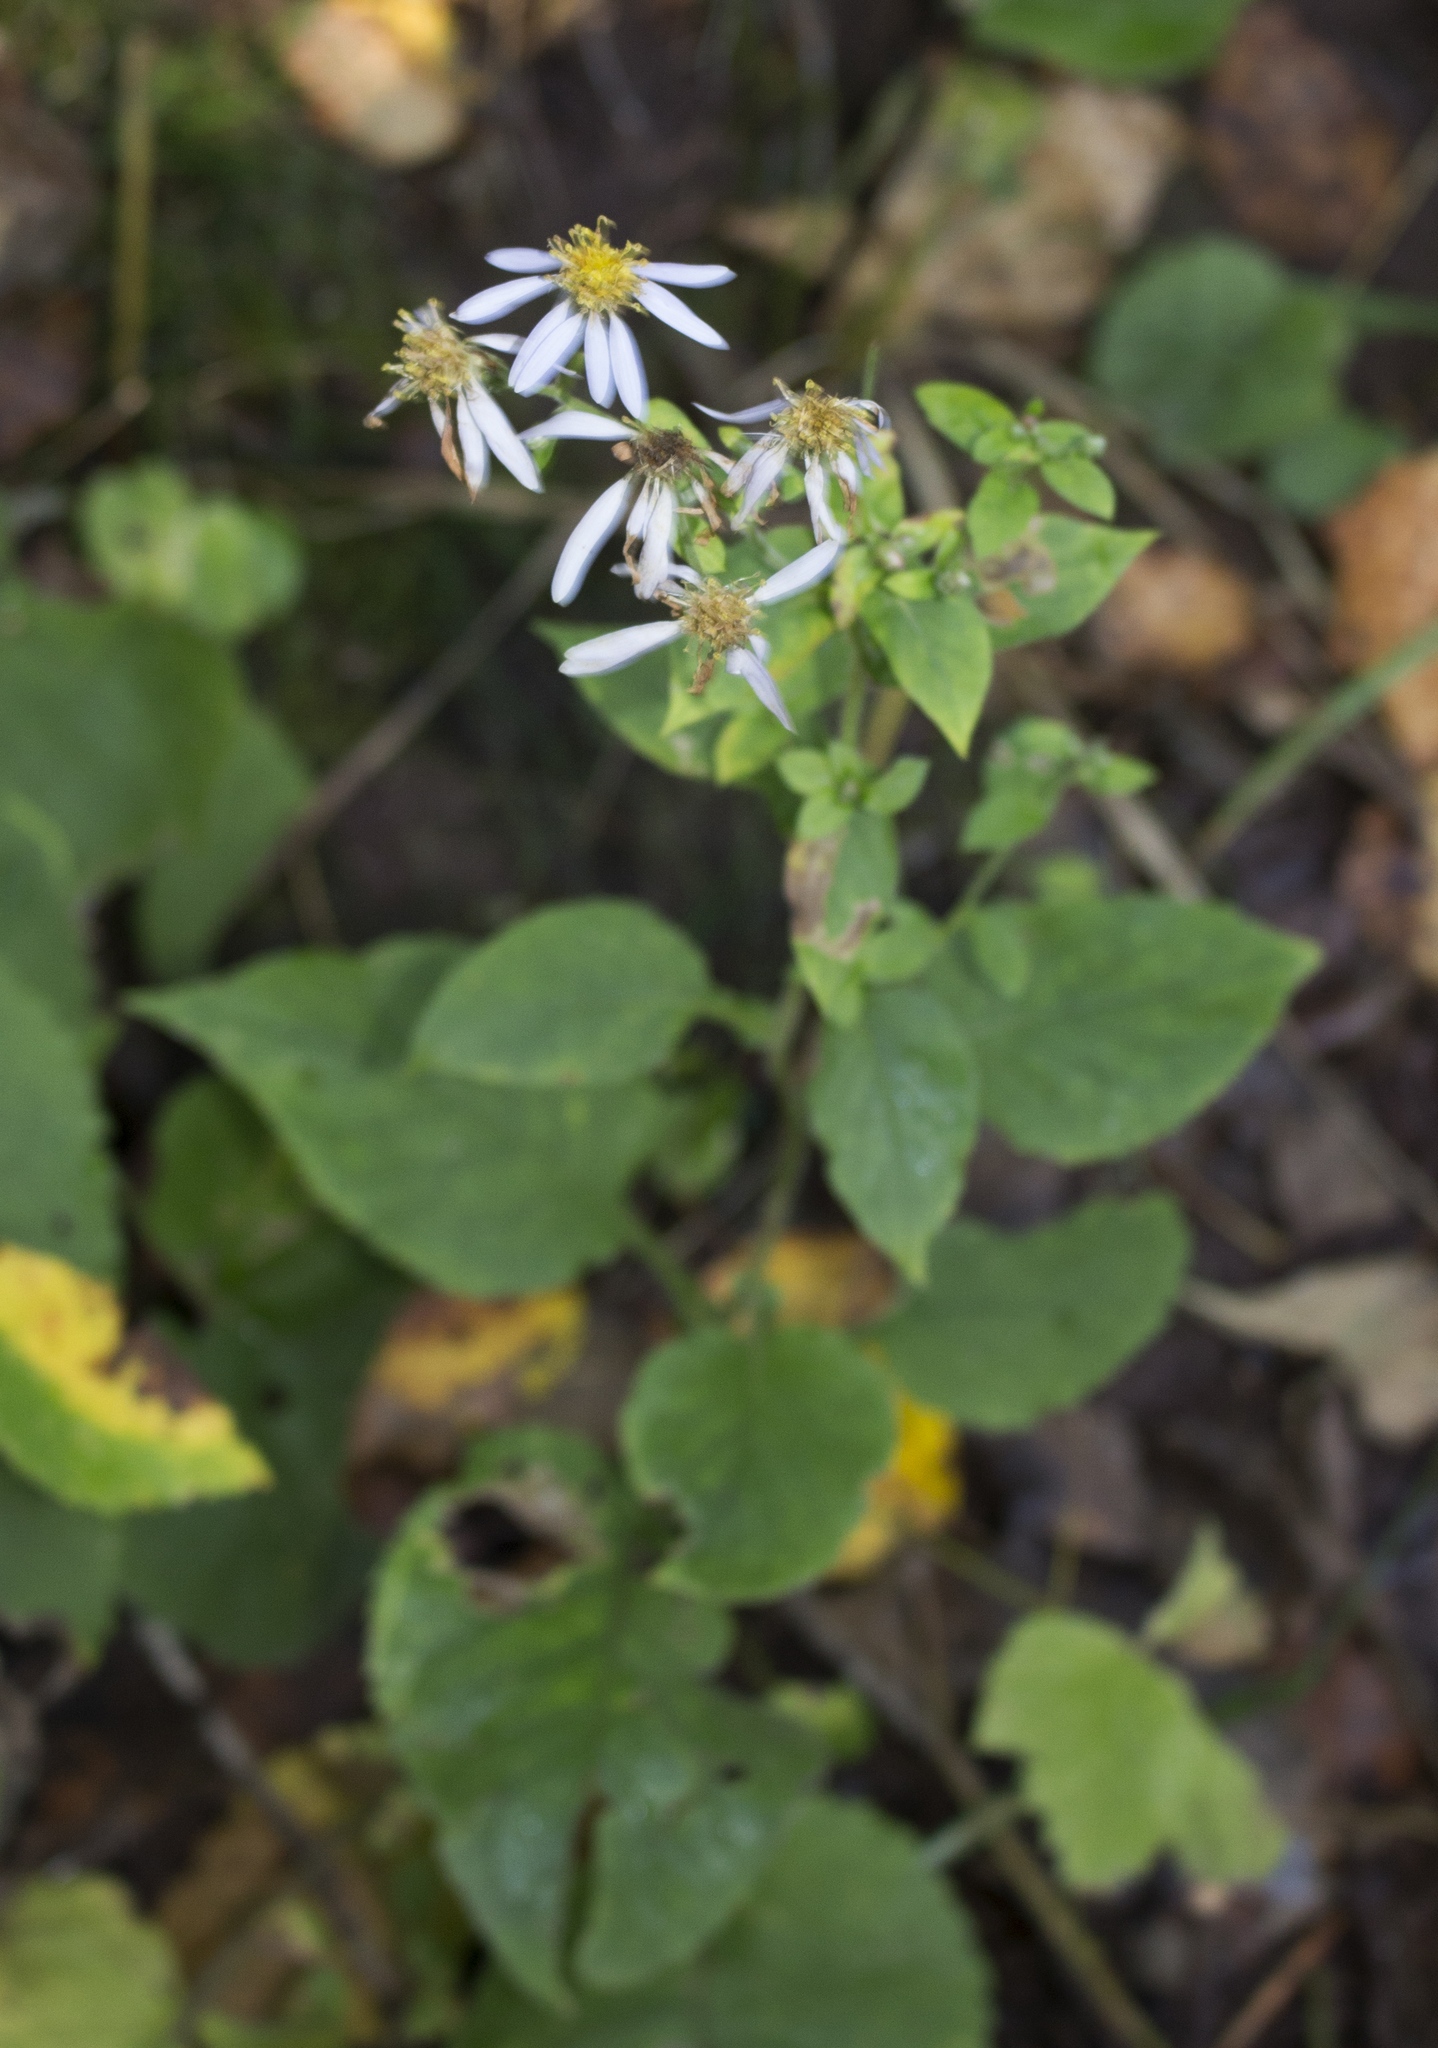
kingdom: Plantae
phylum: Tracheophyta
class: Magnoliopsida
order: Asterales
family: Asteraceae
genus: Eurybia
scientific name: Eurybia macrophylla
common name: Big-leaved aster
